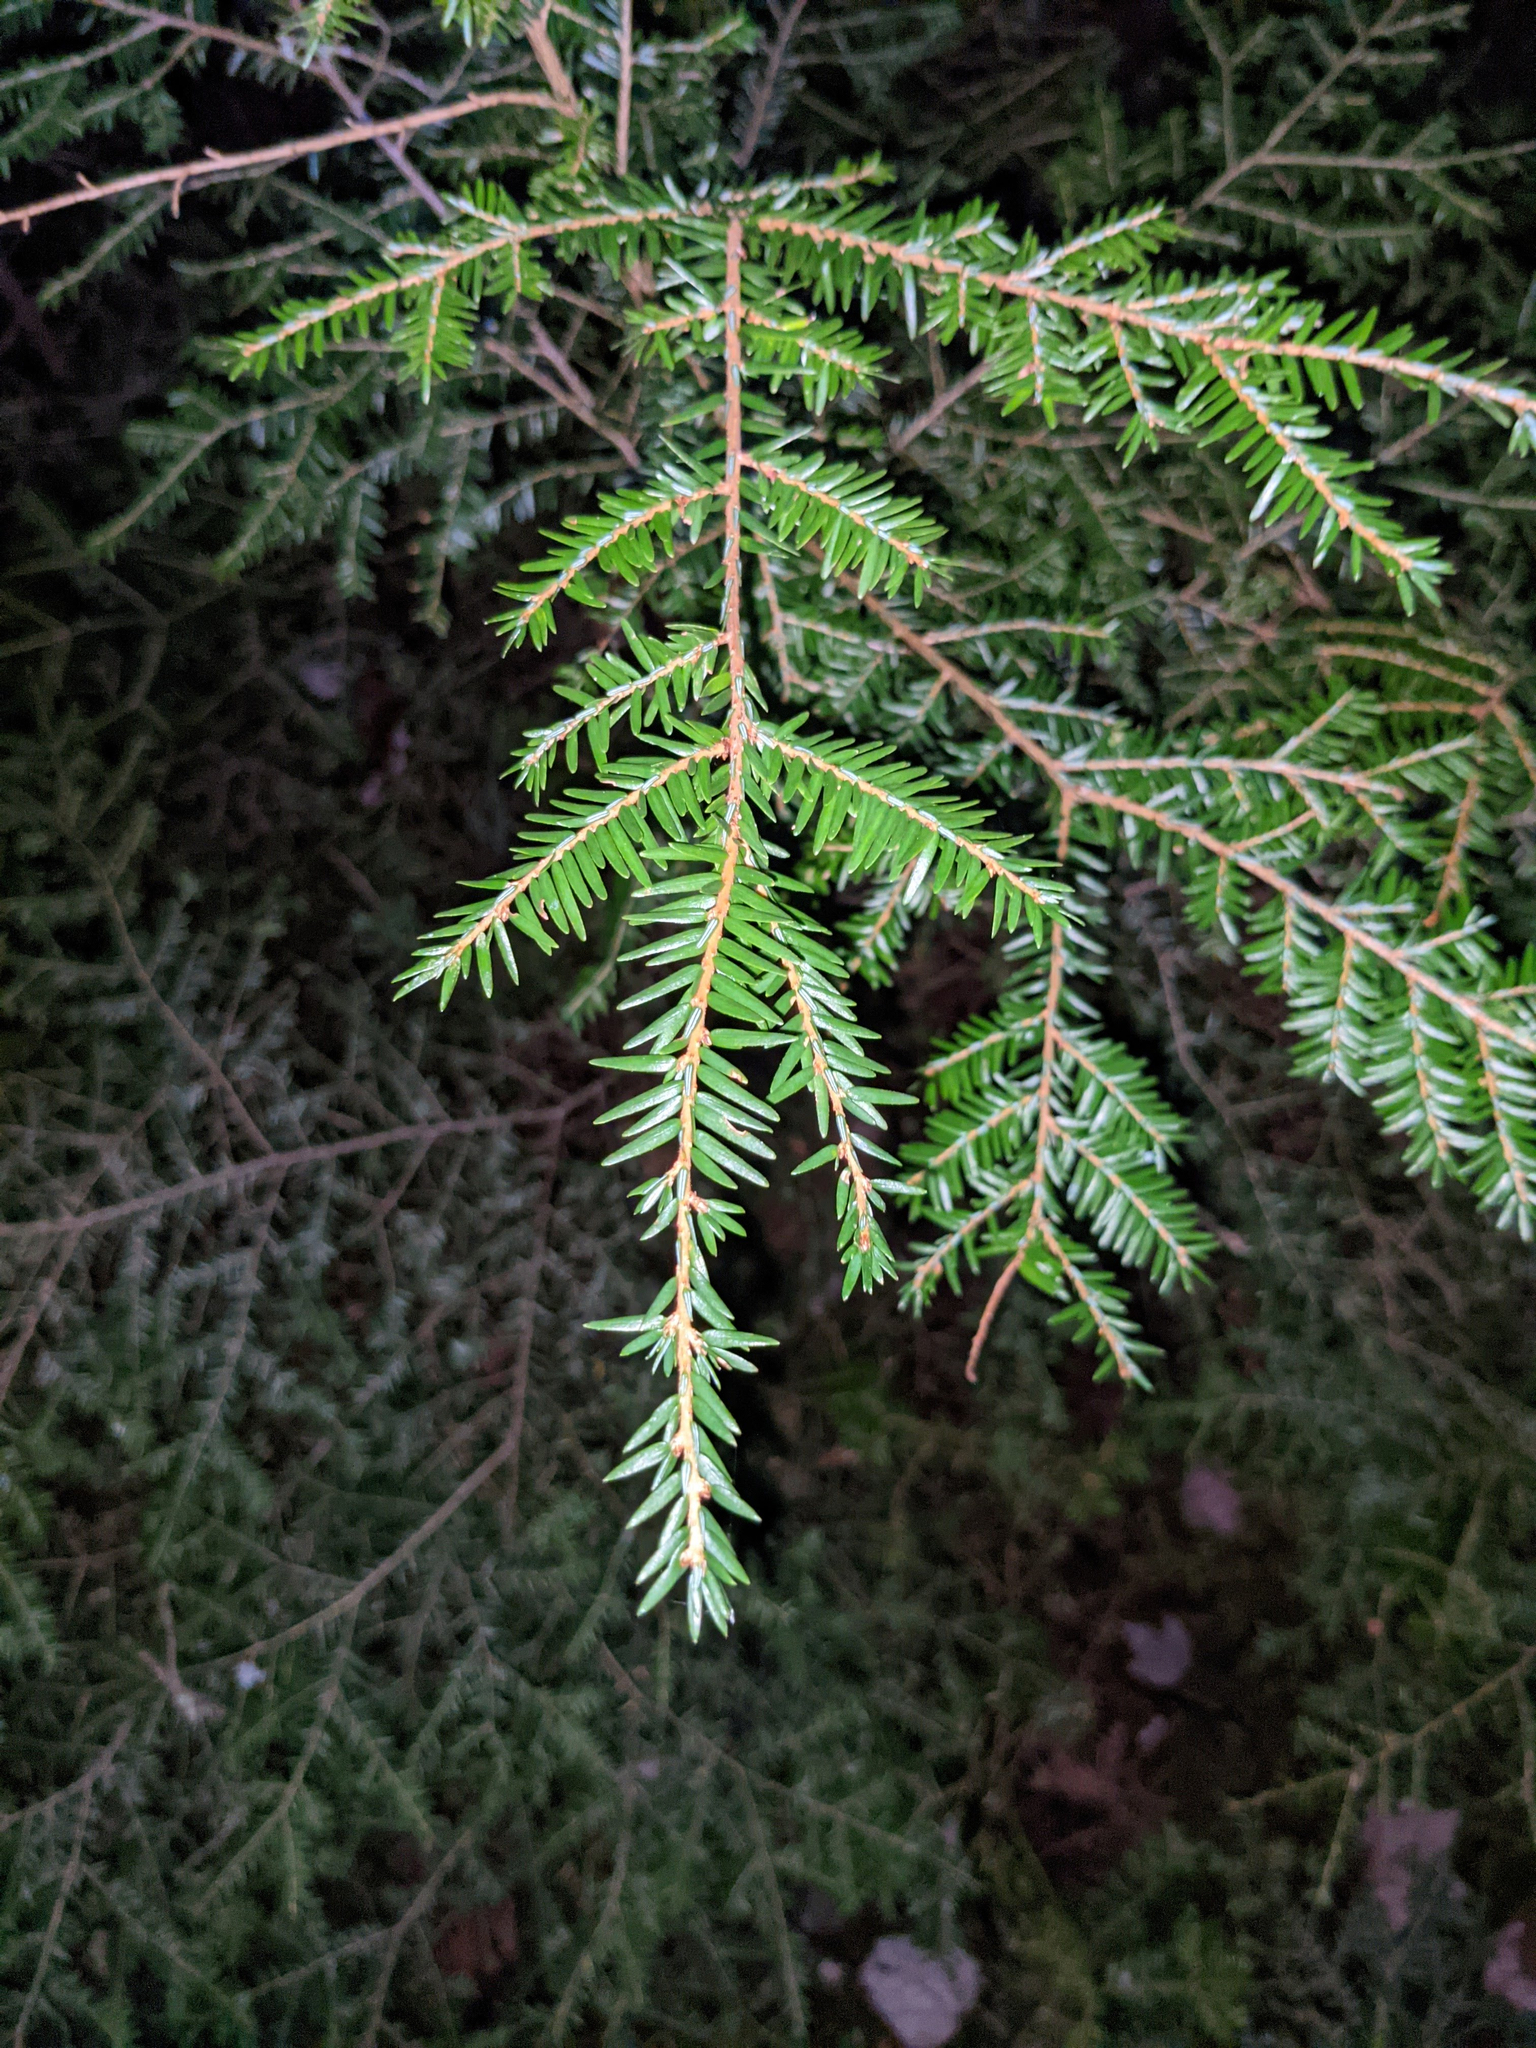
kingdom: Plantae
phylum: Tracheophyta
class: Pinopsida
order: Pinales
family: Pinaceae
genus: Tsuga
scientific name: Tsuga canadensis
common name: Eastern hemlock
